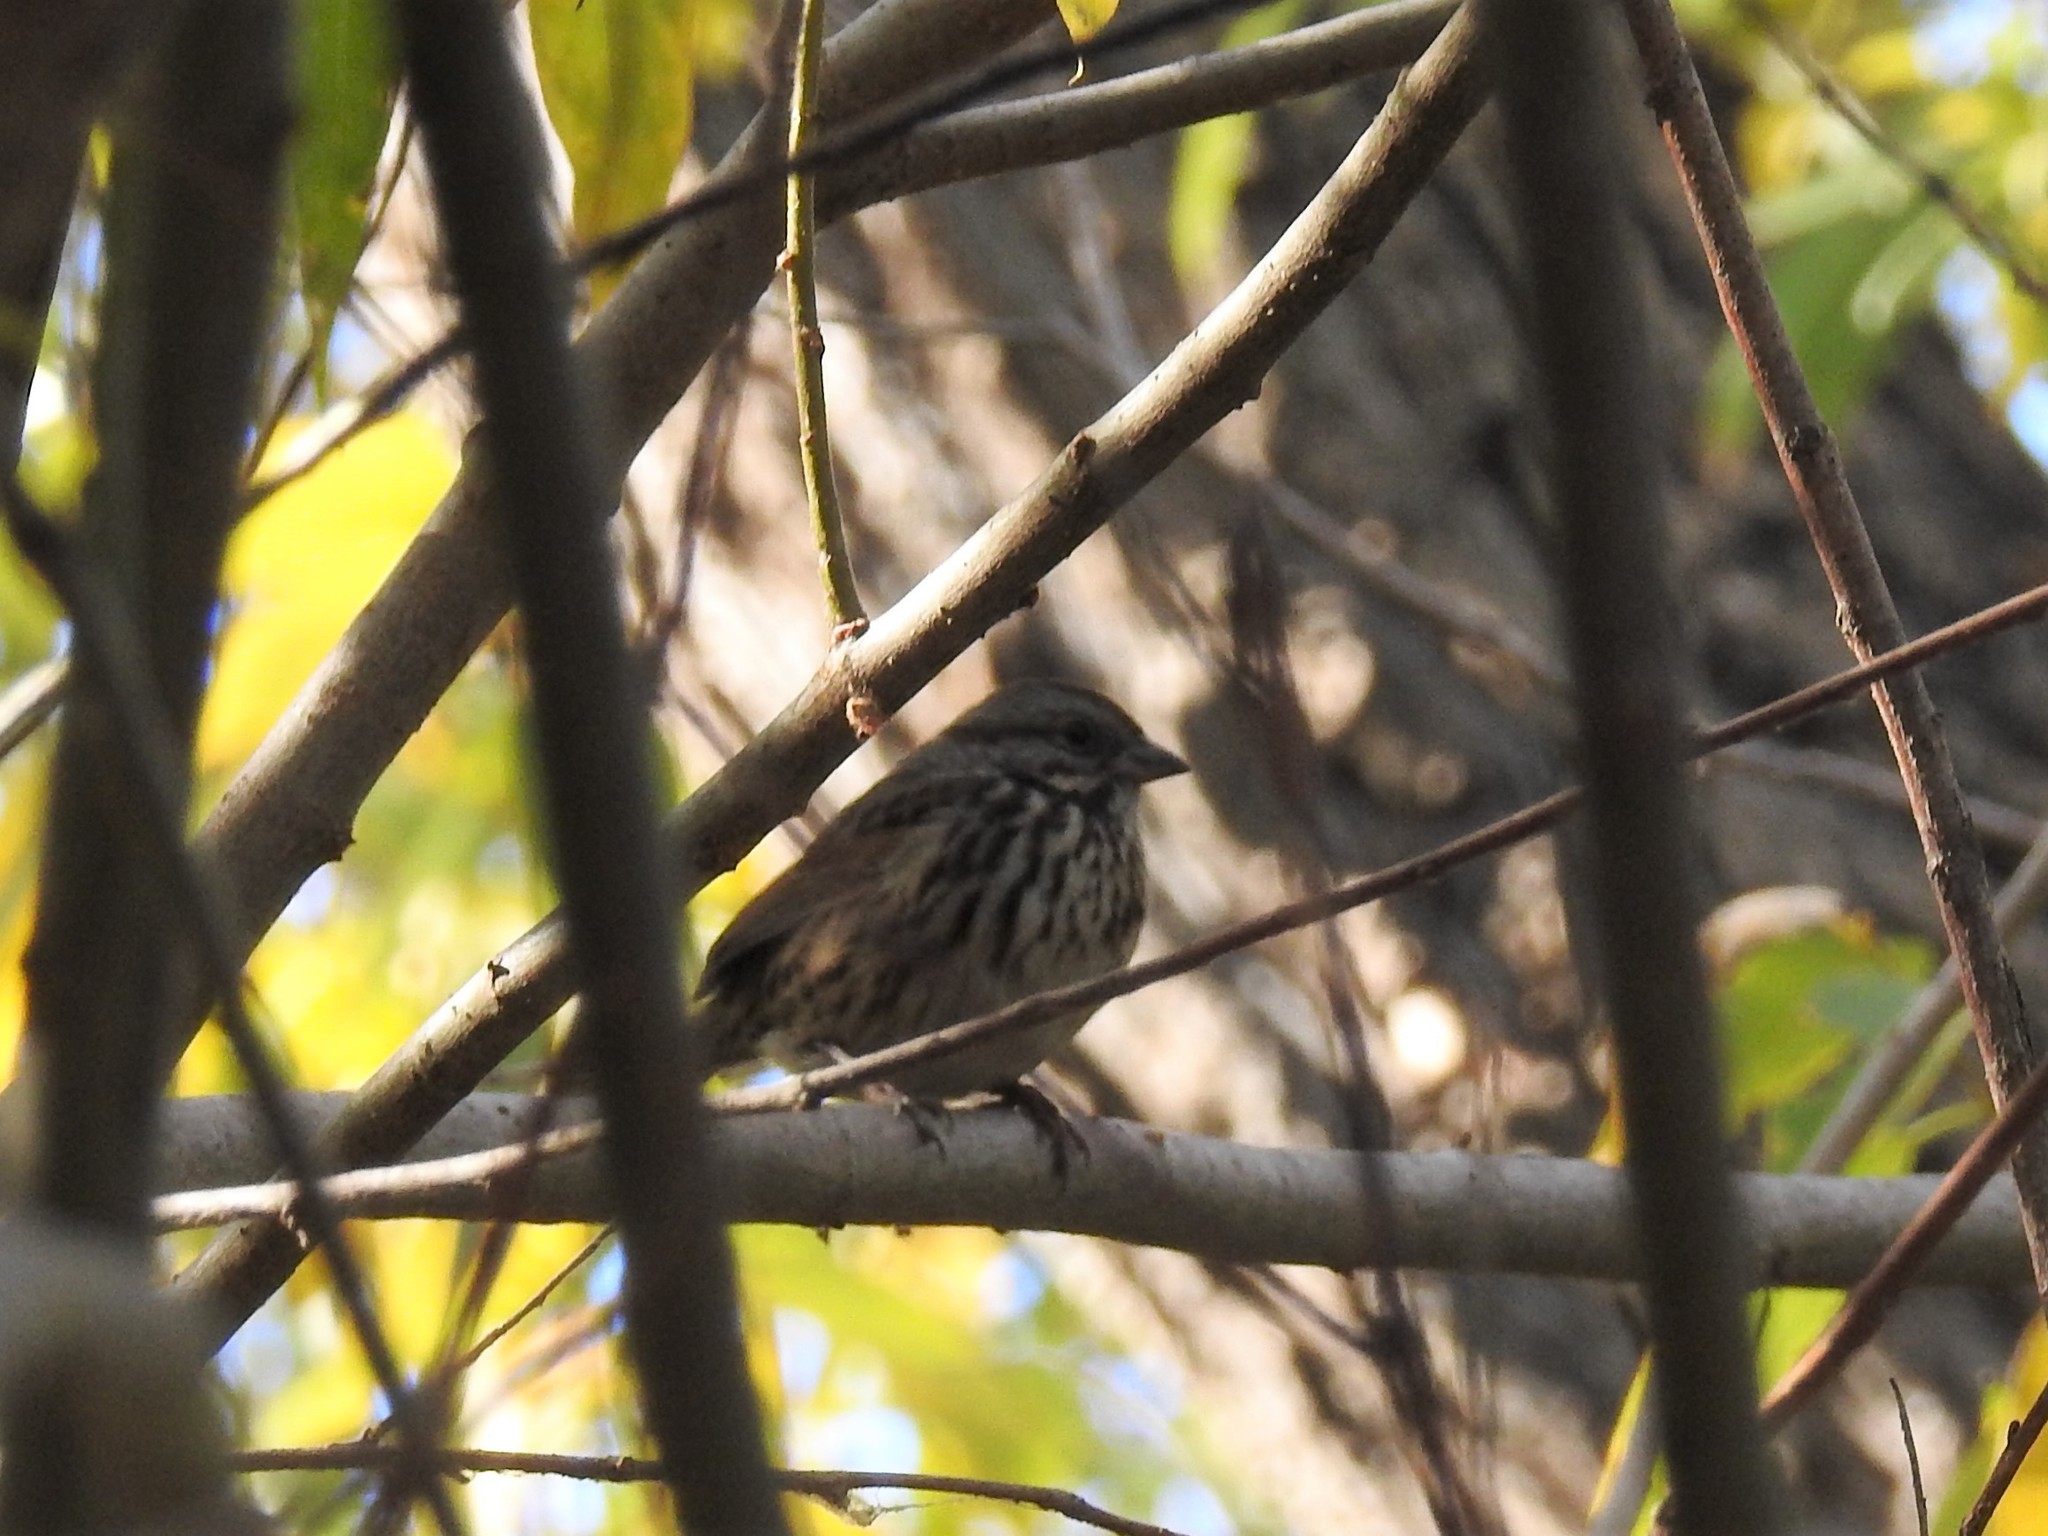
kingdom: Animalia
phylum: Chordata
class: Aves
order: Passeriformes
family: Passerellidae
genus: Melospiza
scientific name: Melospiza melodia
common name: Song sparrow
